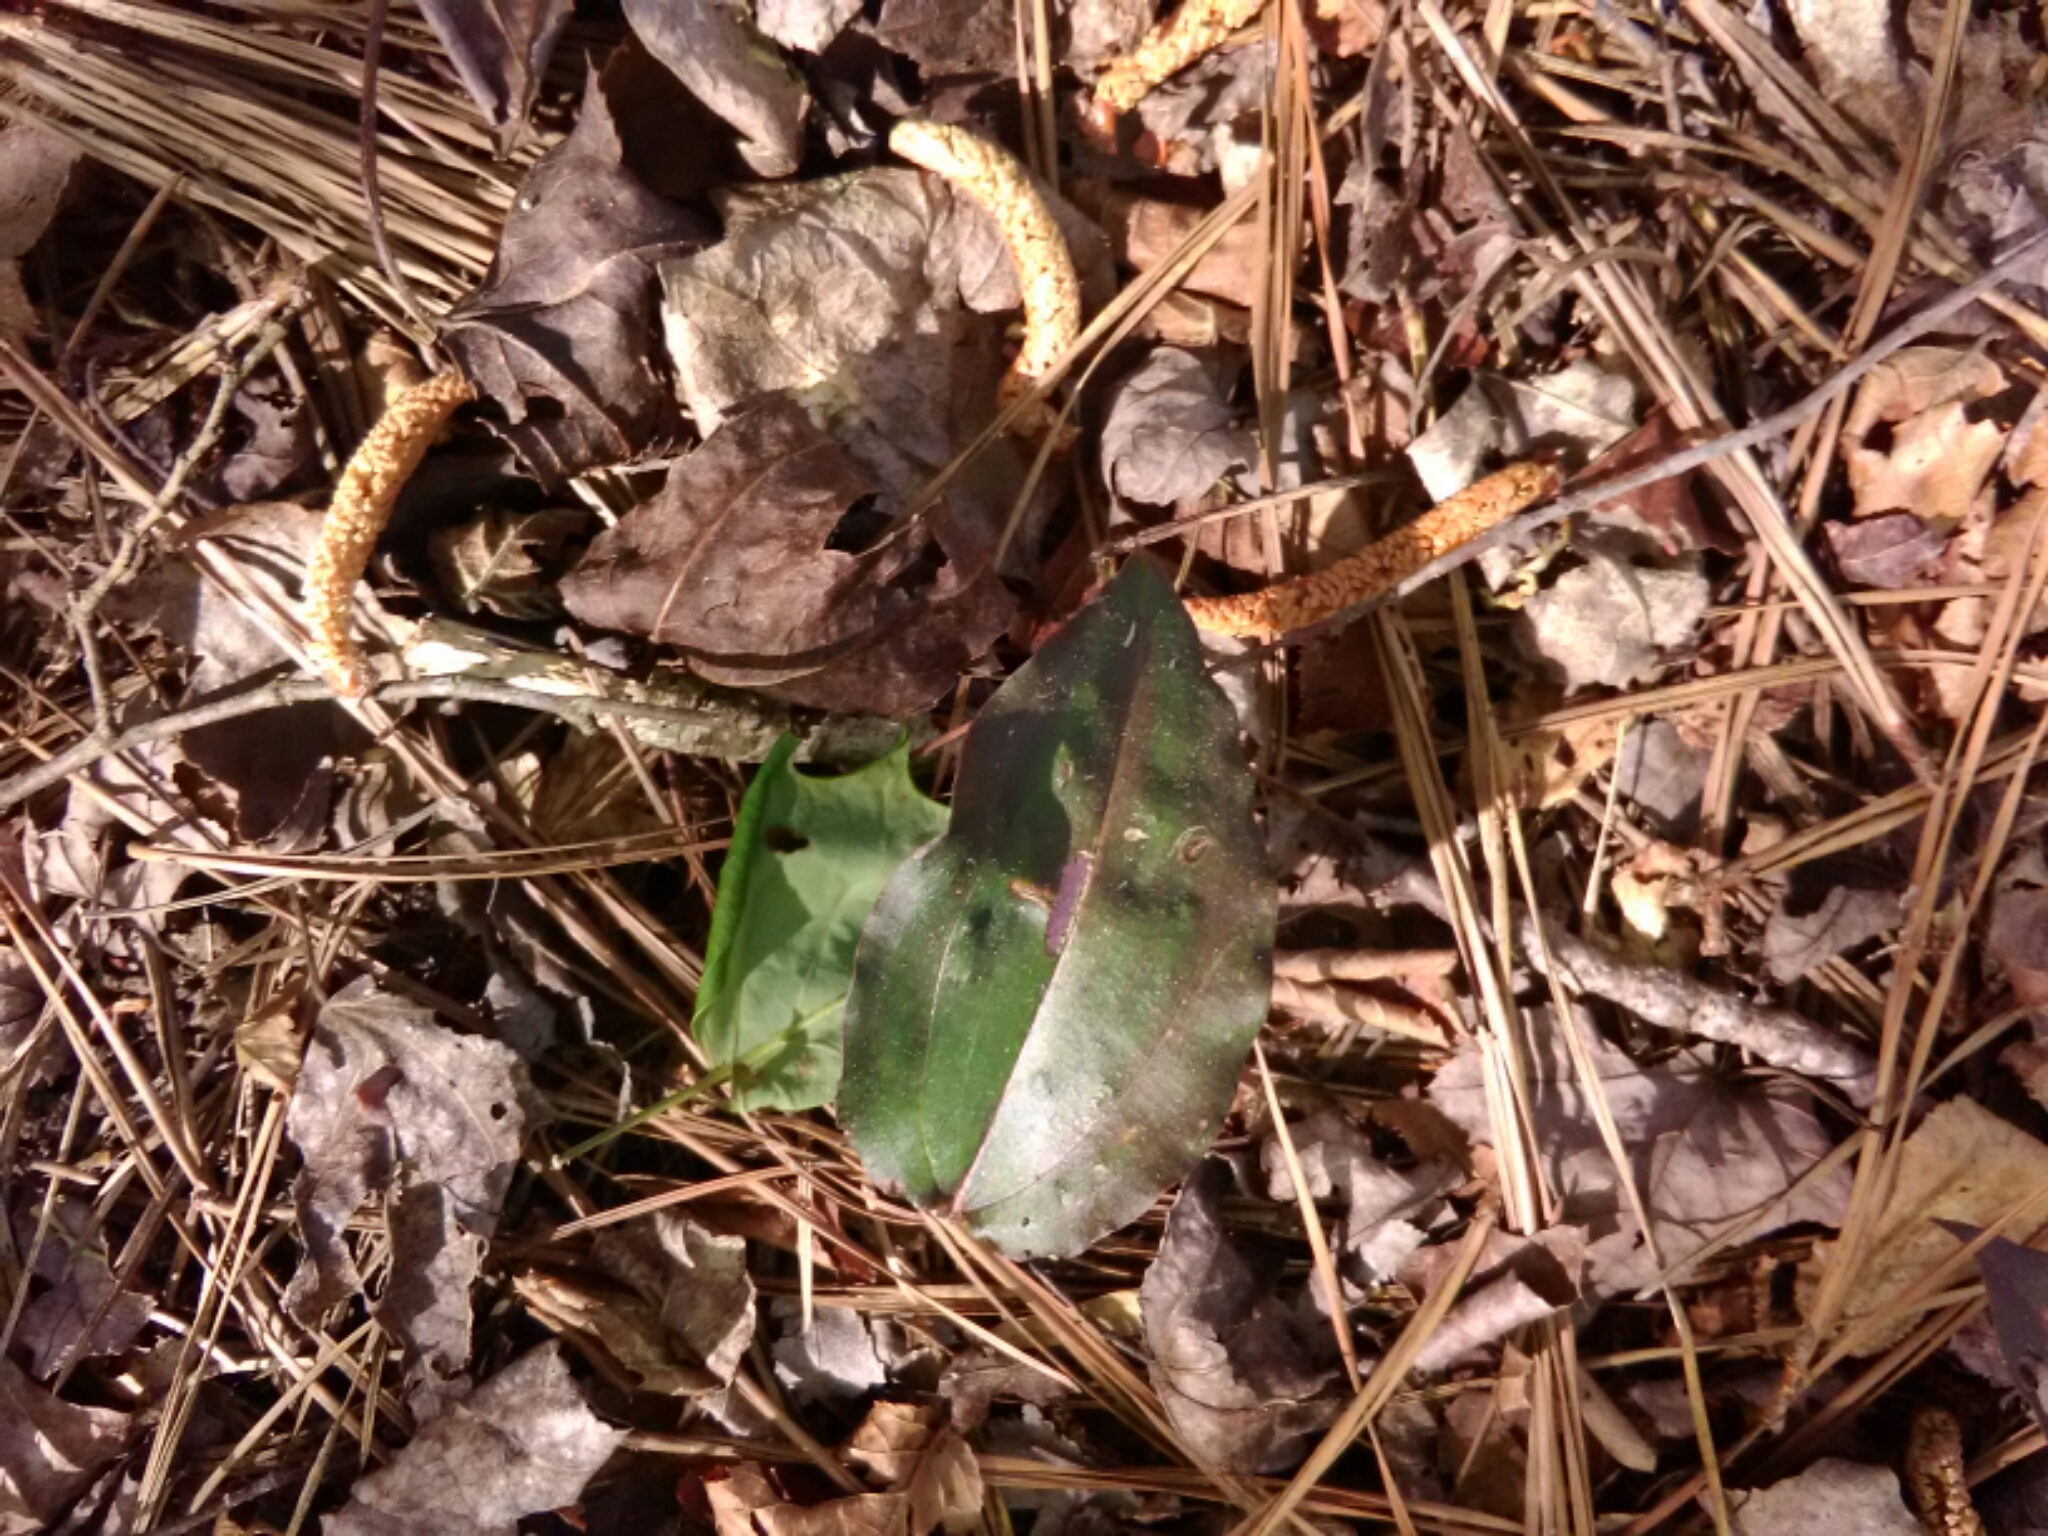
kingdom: Plantae
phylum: Tracheophyta
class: Liliopsida
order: Asparagales
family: Orchidaceae
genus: Tipularia
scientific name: Tipularia discolor
